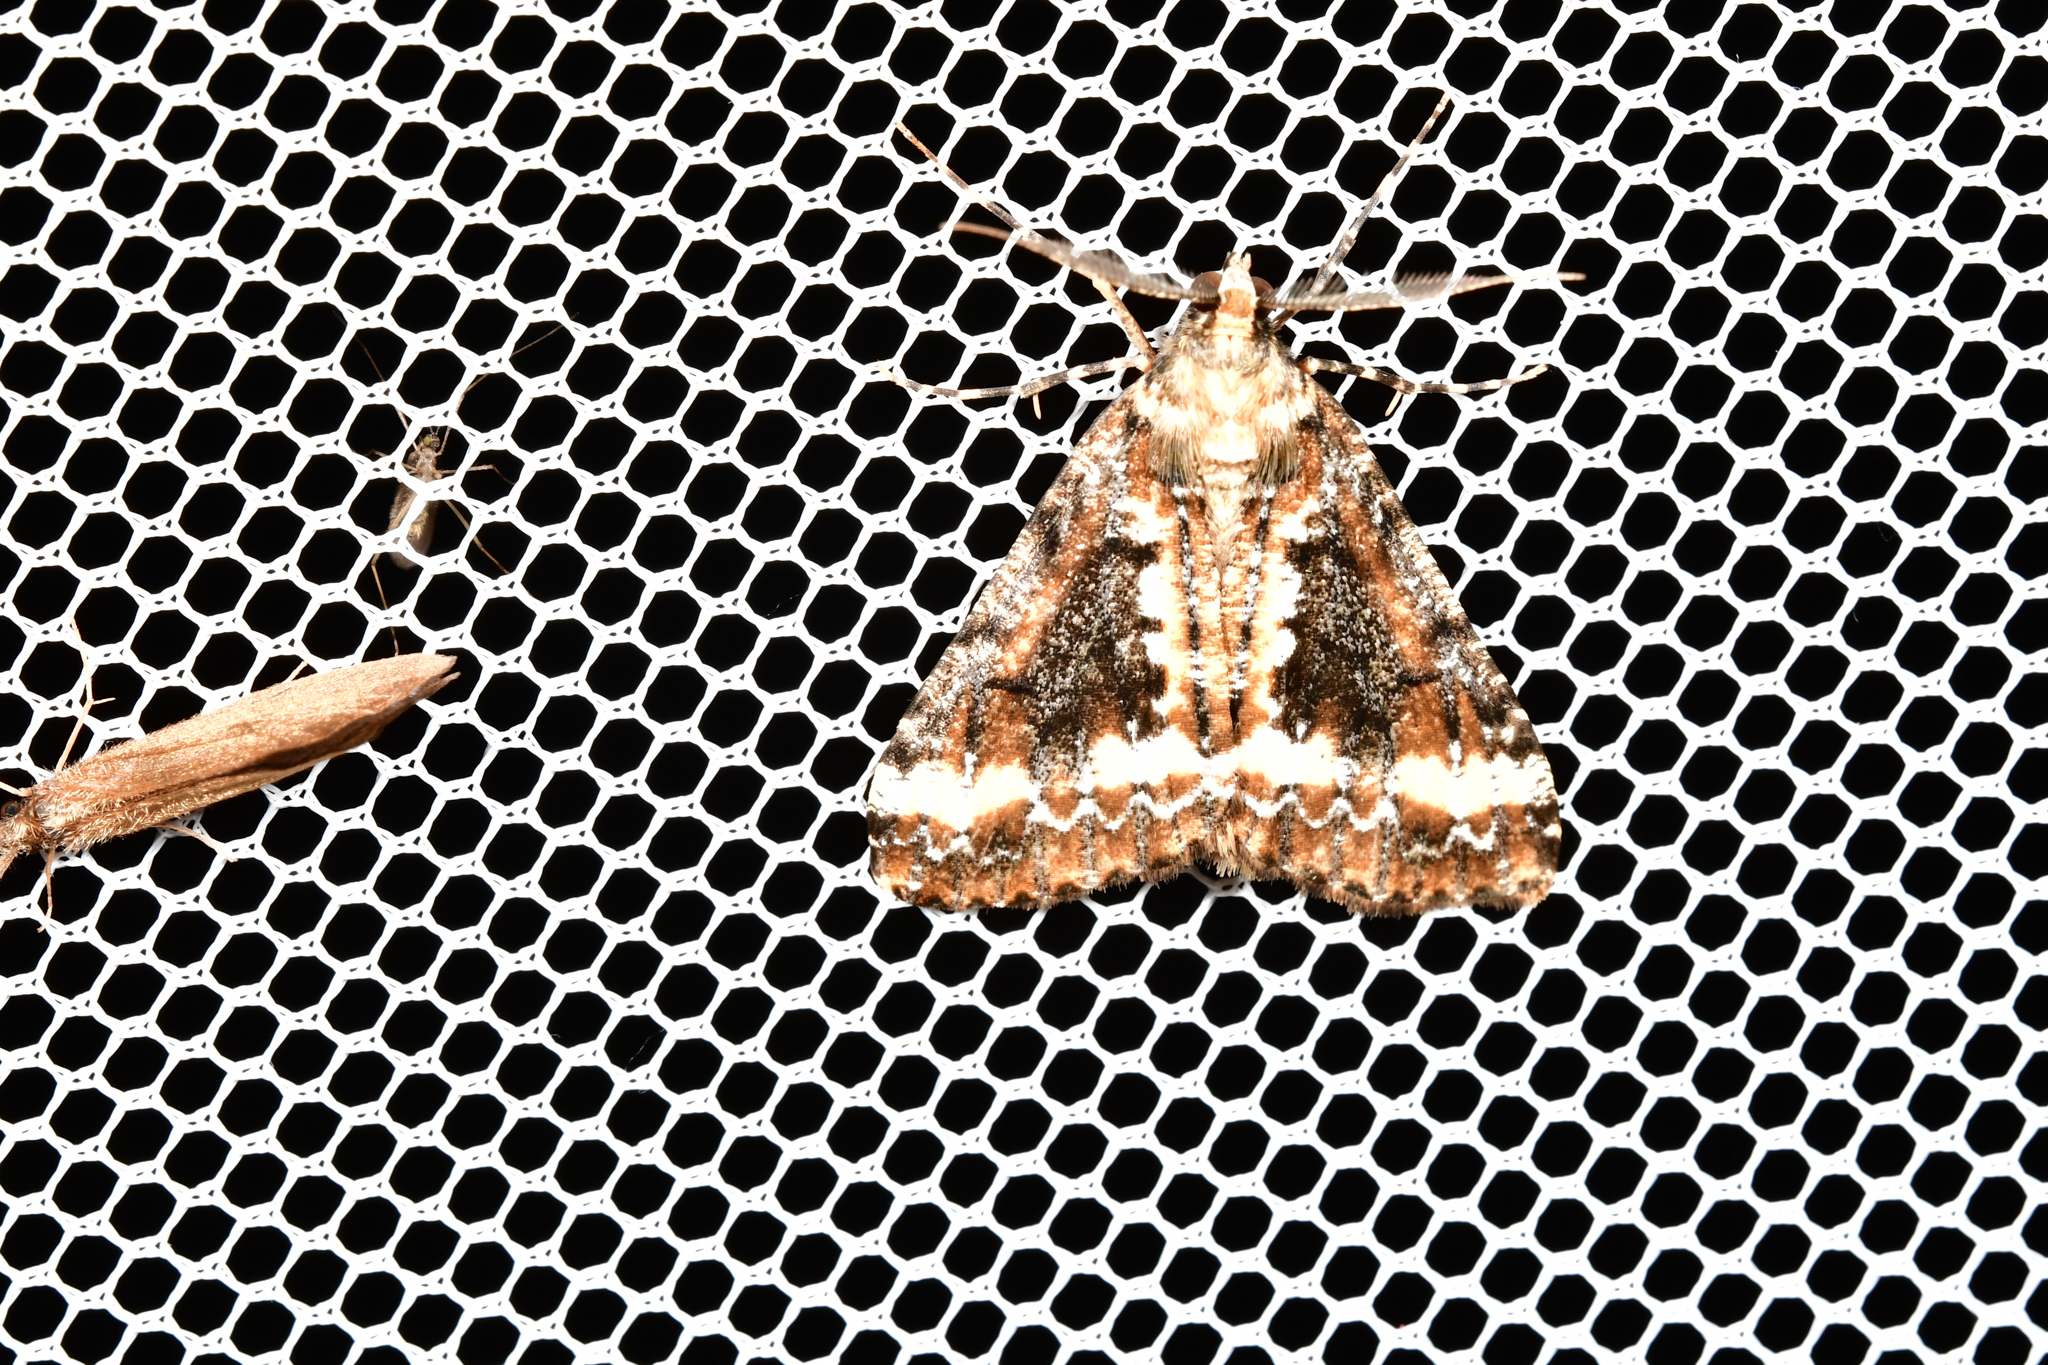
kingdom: Animalia
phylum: Arthropoda
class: Insecta
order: Lepidoptera
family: Geometridae
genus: Pseudocoremia
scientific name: Pseudocoremia leucelaea
